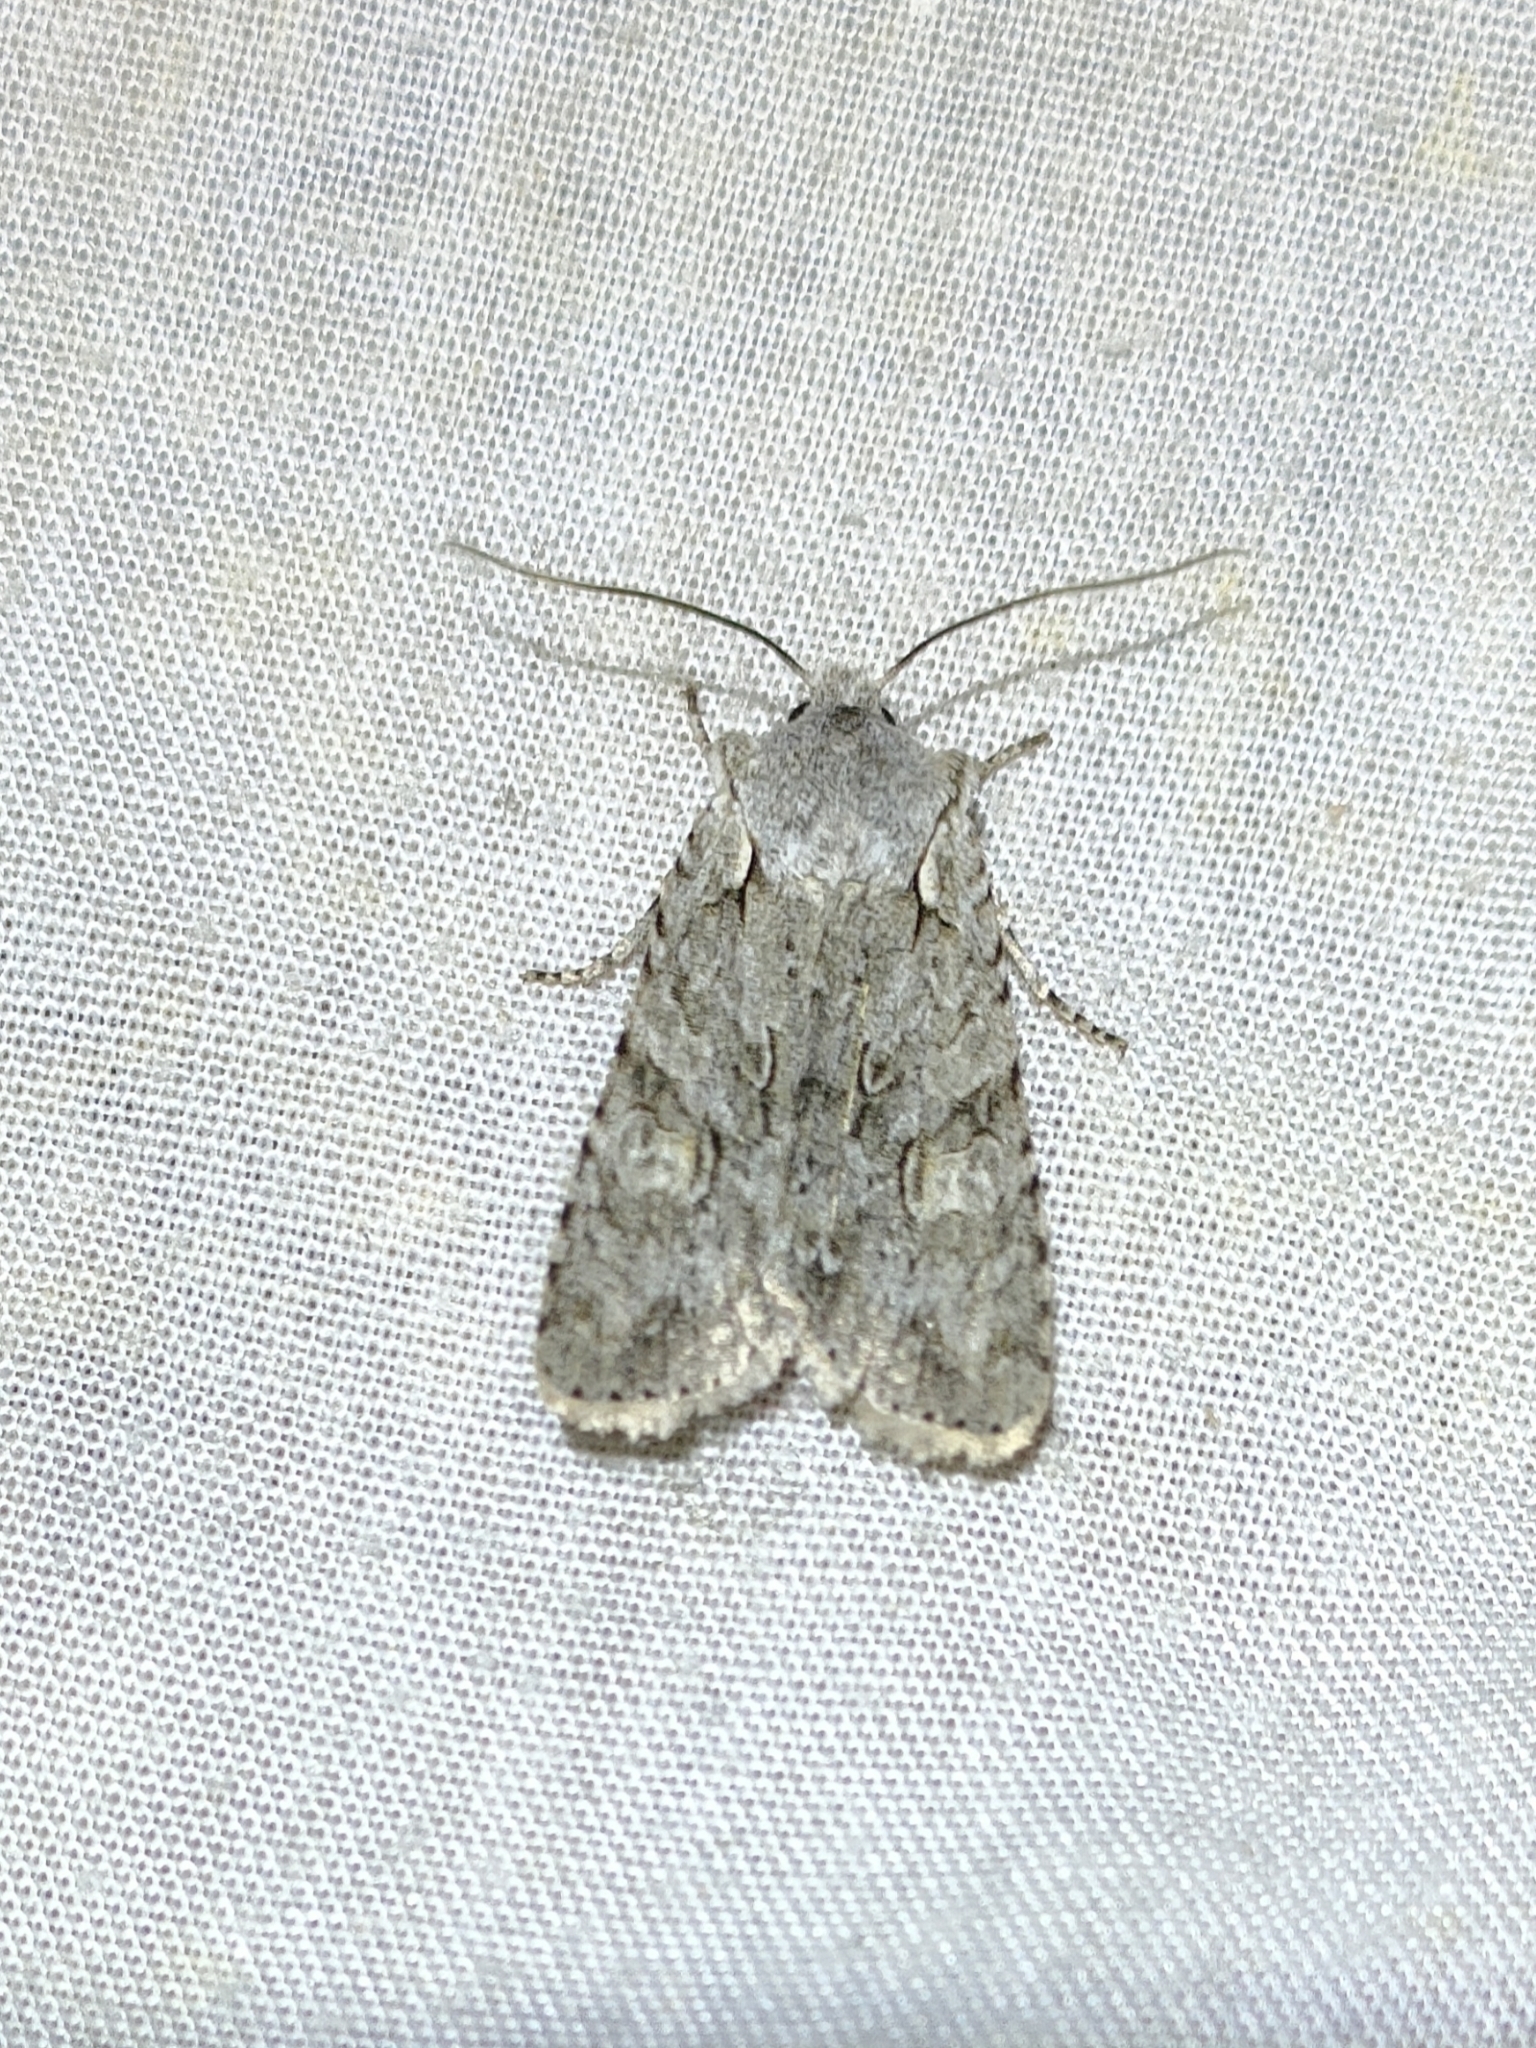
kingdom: Animalia
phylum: Arthropoda
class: Insecta
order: Lepidoptera
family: Noctuidae
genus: Lithophane
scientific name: Lithophane ornitopus
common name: Grey shoulder-knot
